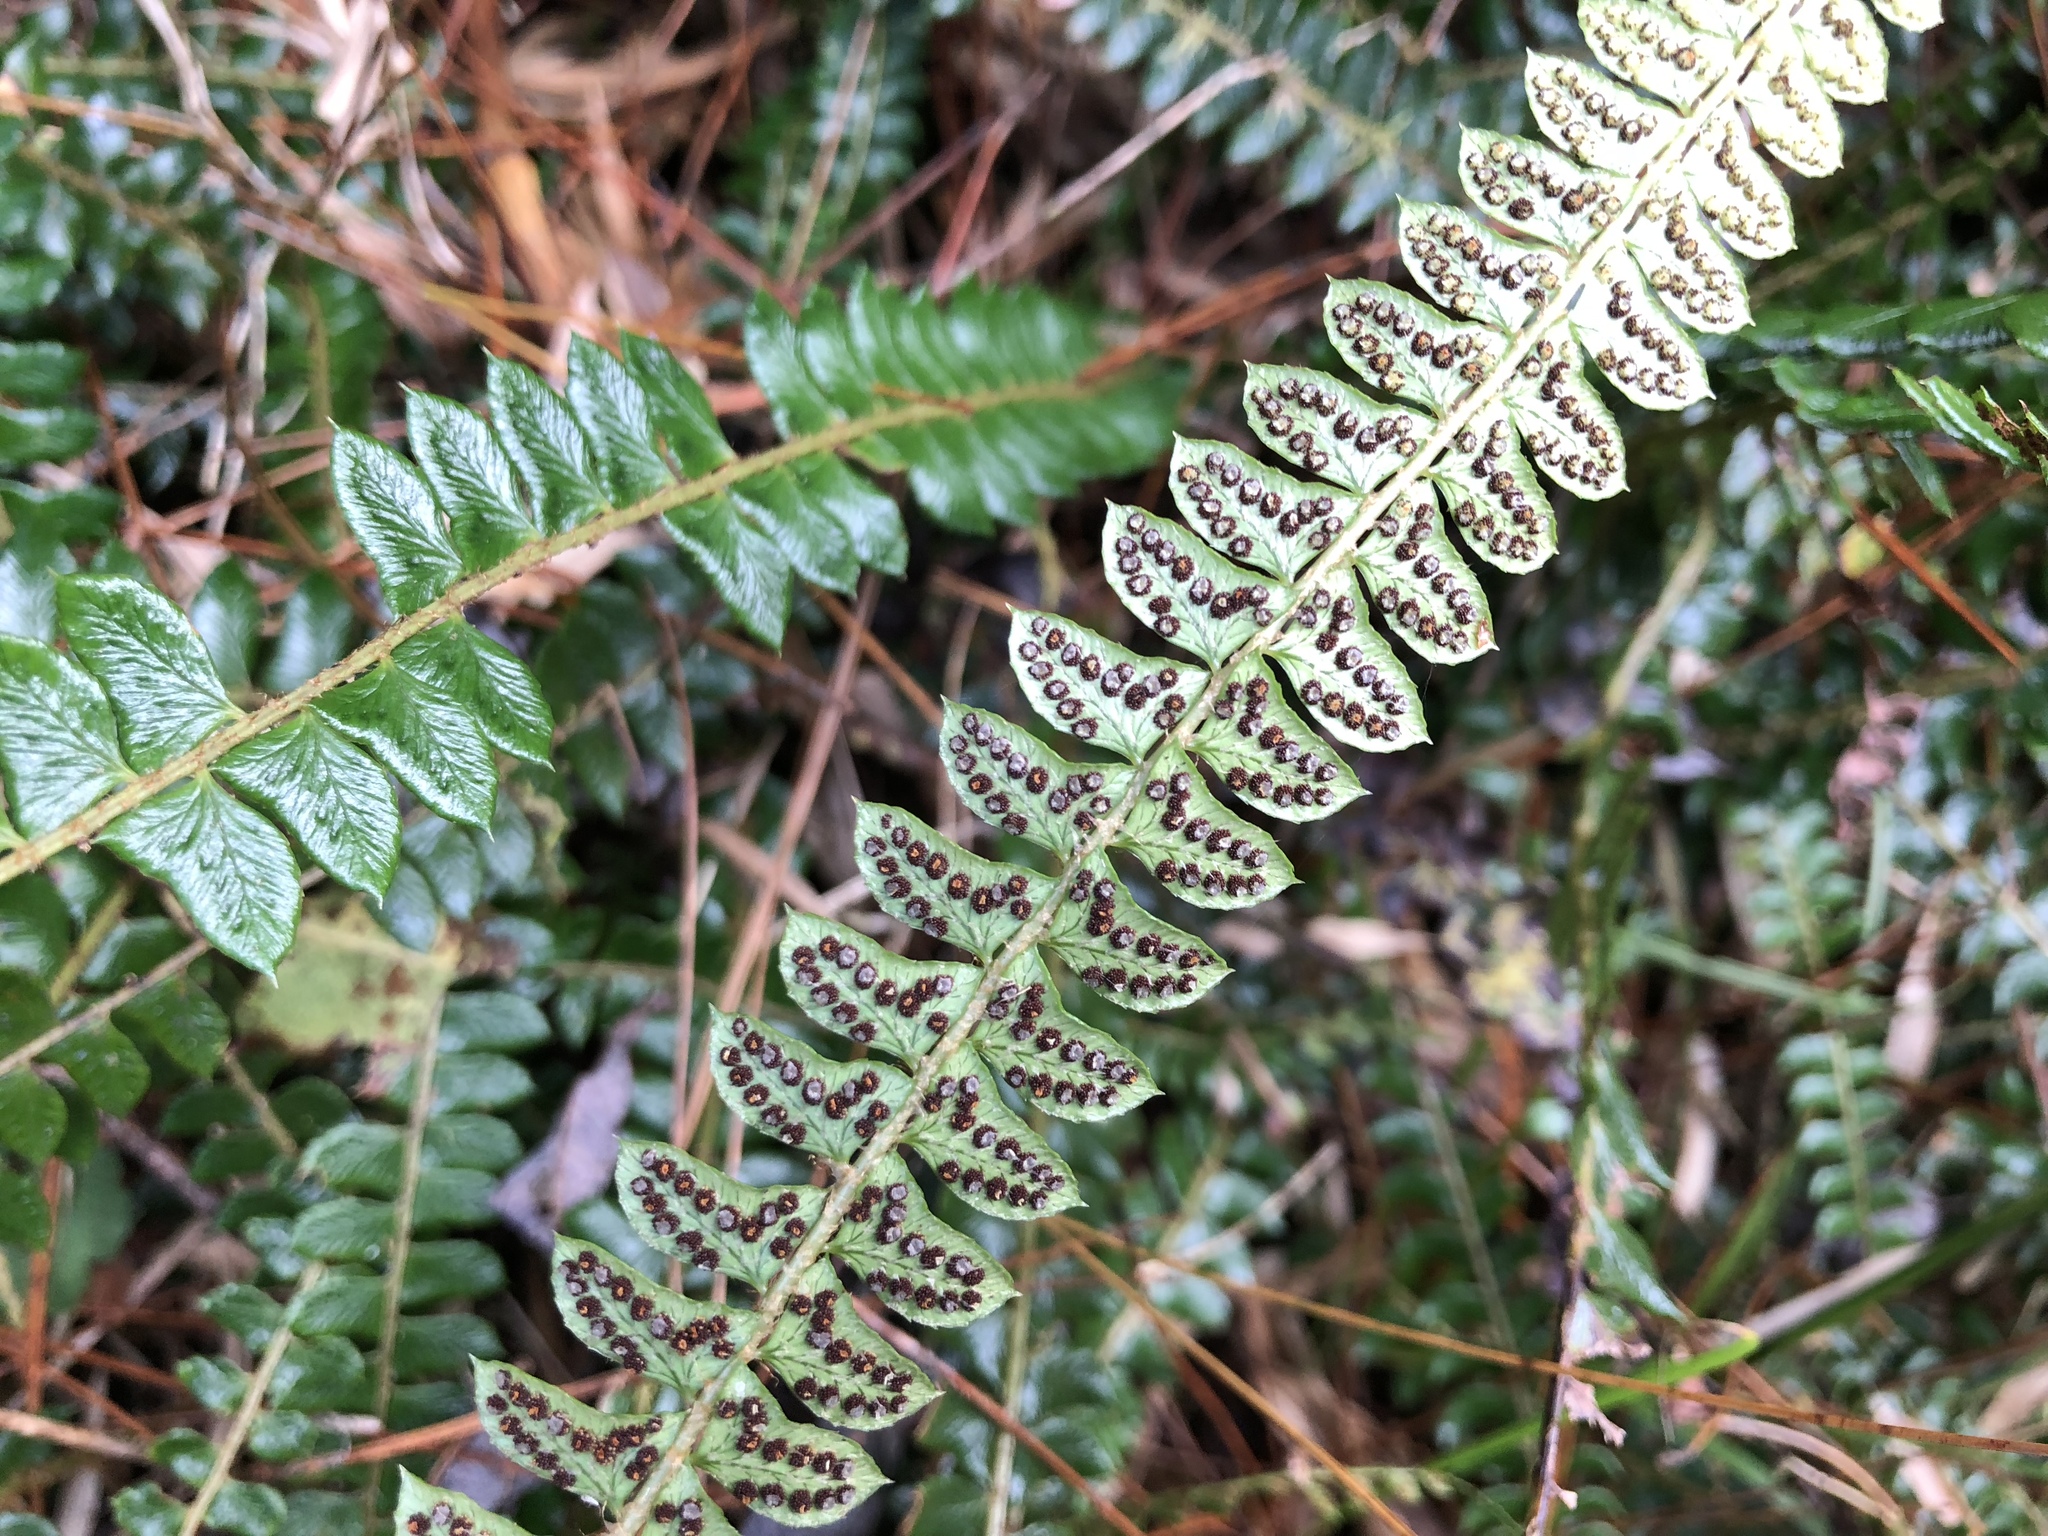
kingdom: Plantae
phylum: Tracheophyta
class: Polypodiopsida
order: Polypodiales
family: Dryopteridaceae
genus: Polystichum
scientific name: Polystichum levingei
